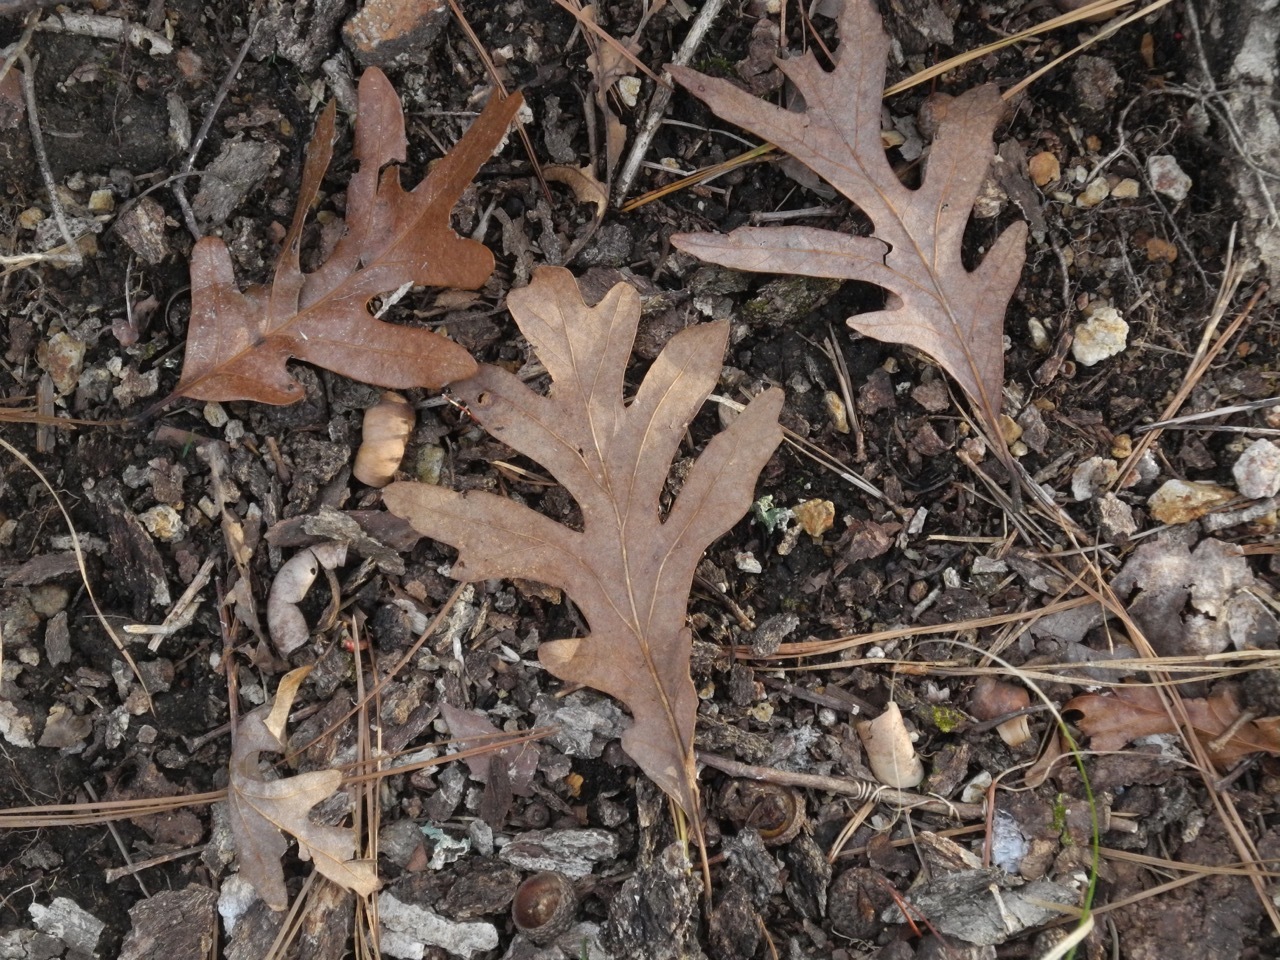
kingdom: Plantae
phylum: Tracheophyta
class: Magnoliopsida
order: Fagales
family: Fagaceae
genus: Quercus
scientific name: Quercus alba
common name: White oak
